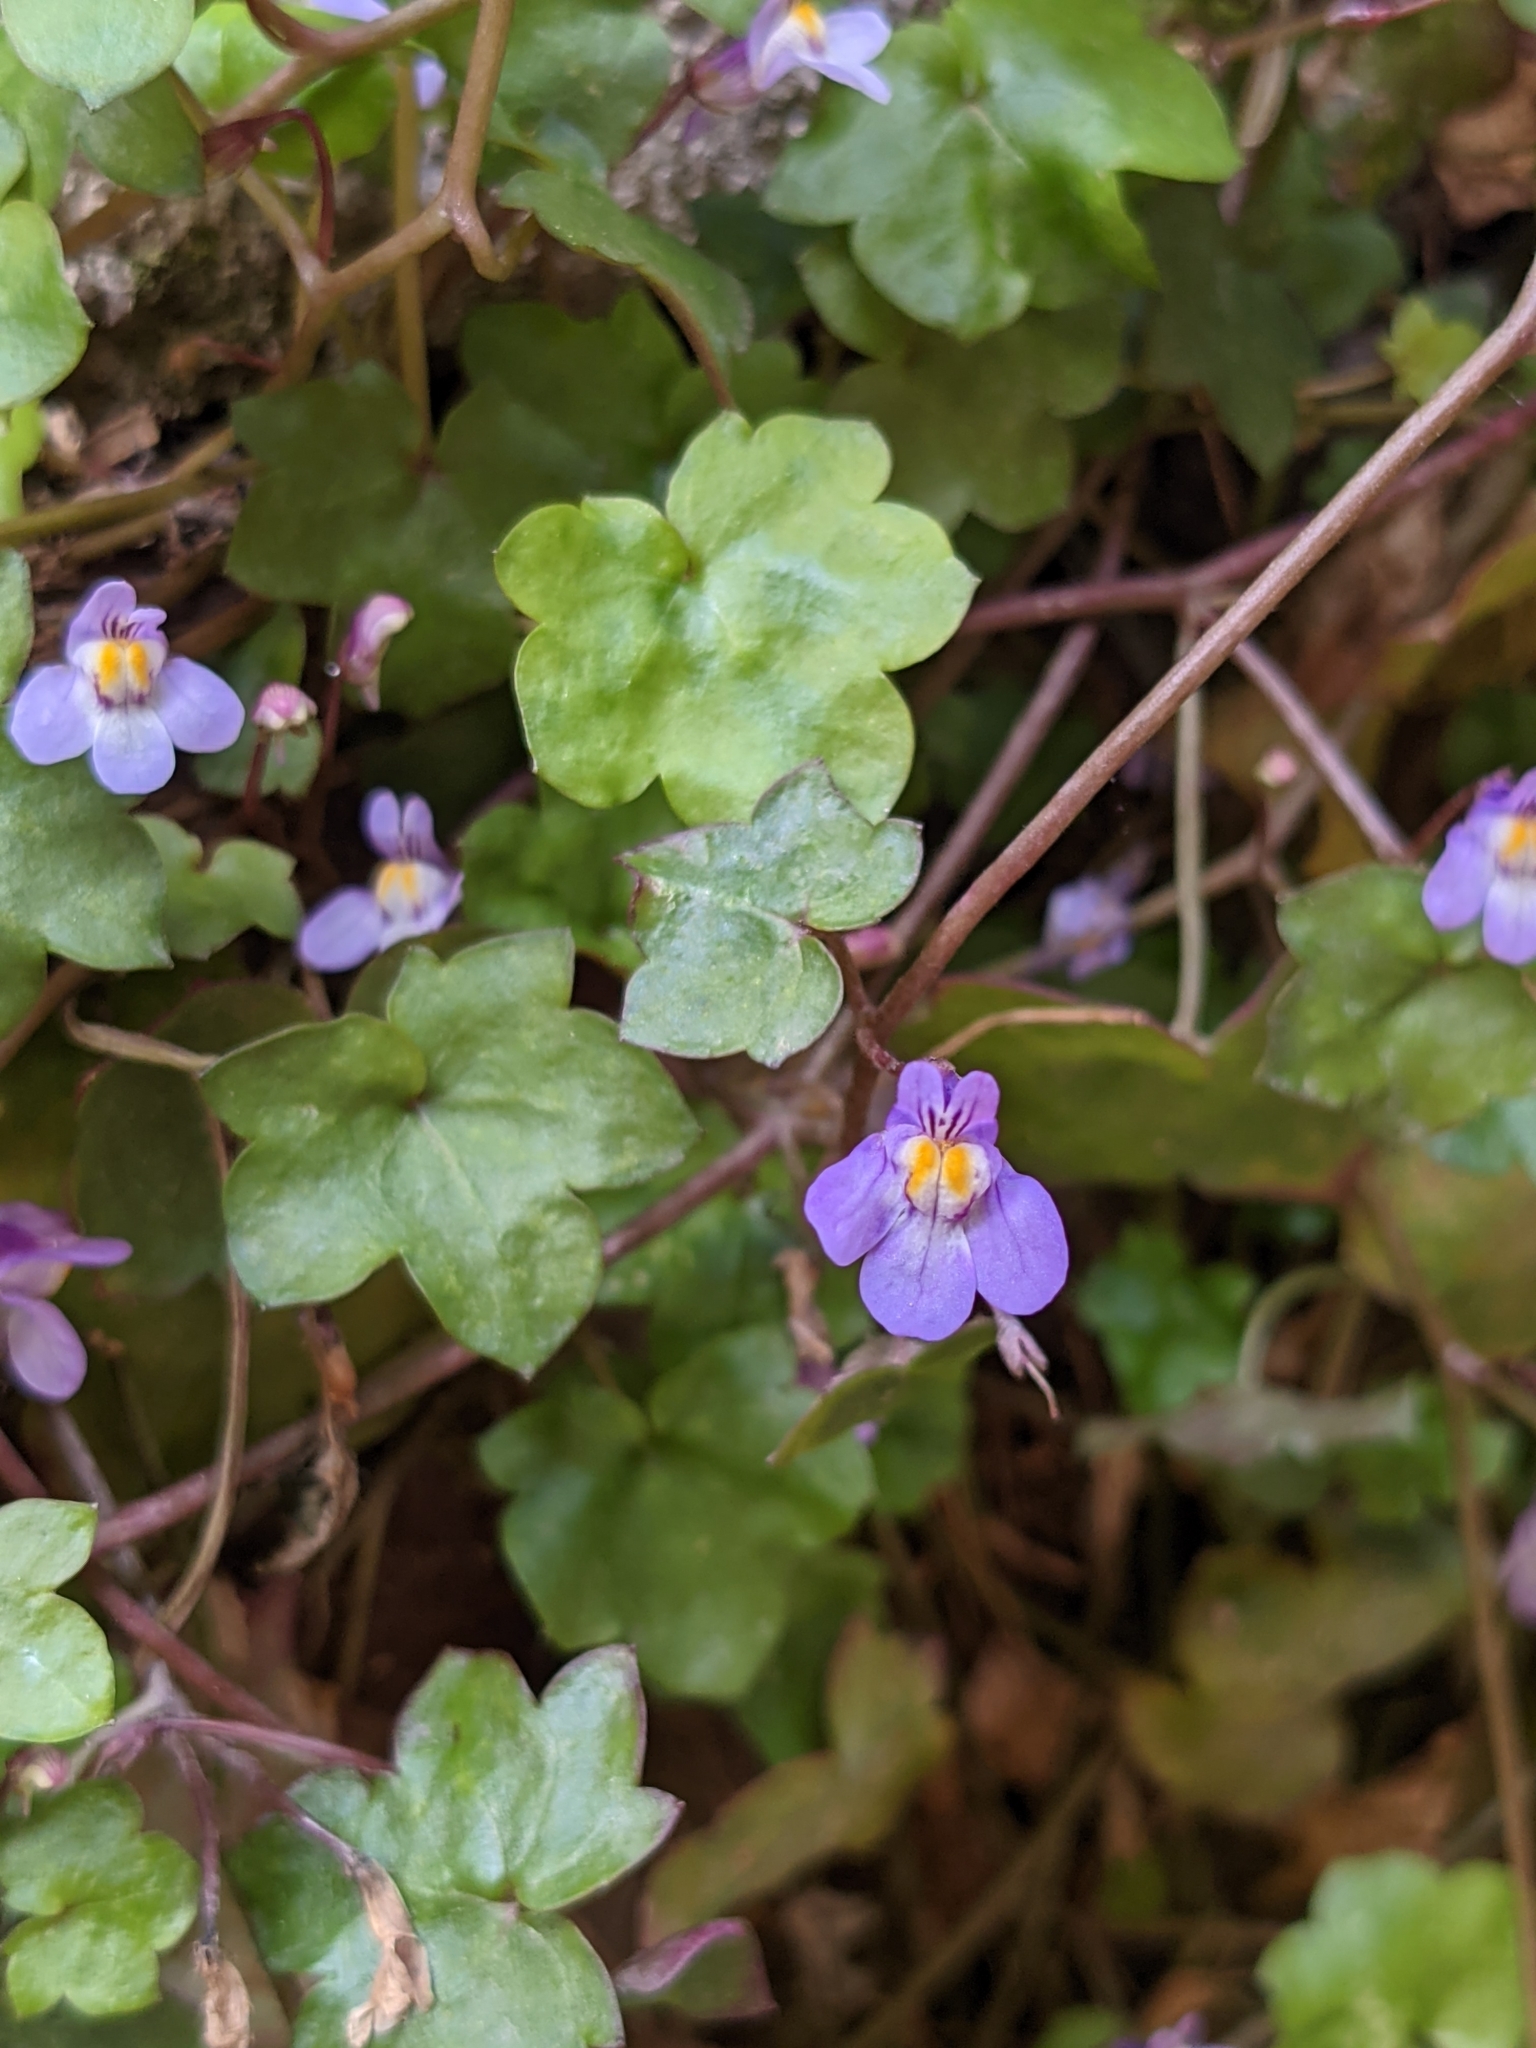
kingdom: Plantae
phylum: Tracheophyta
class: Magnoliopsida
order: Lamiales
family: Plantaginaceae
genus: Cymbalaria
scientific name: Cymbalaria muralis
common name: Ivy-leaved toadflax
